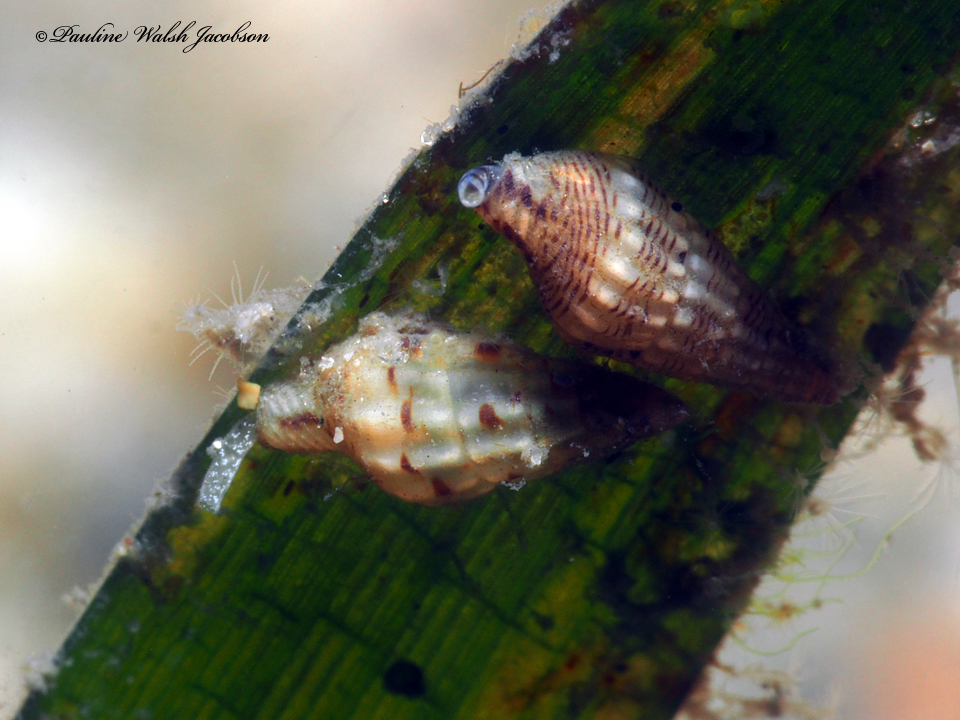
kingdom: Animalia
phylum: Mollusca
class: Gastropoda
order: Neogastropoda
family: Columbellidae
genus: Suturoglypta
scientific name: Suturoglypta iontha
